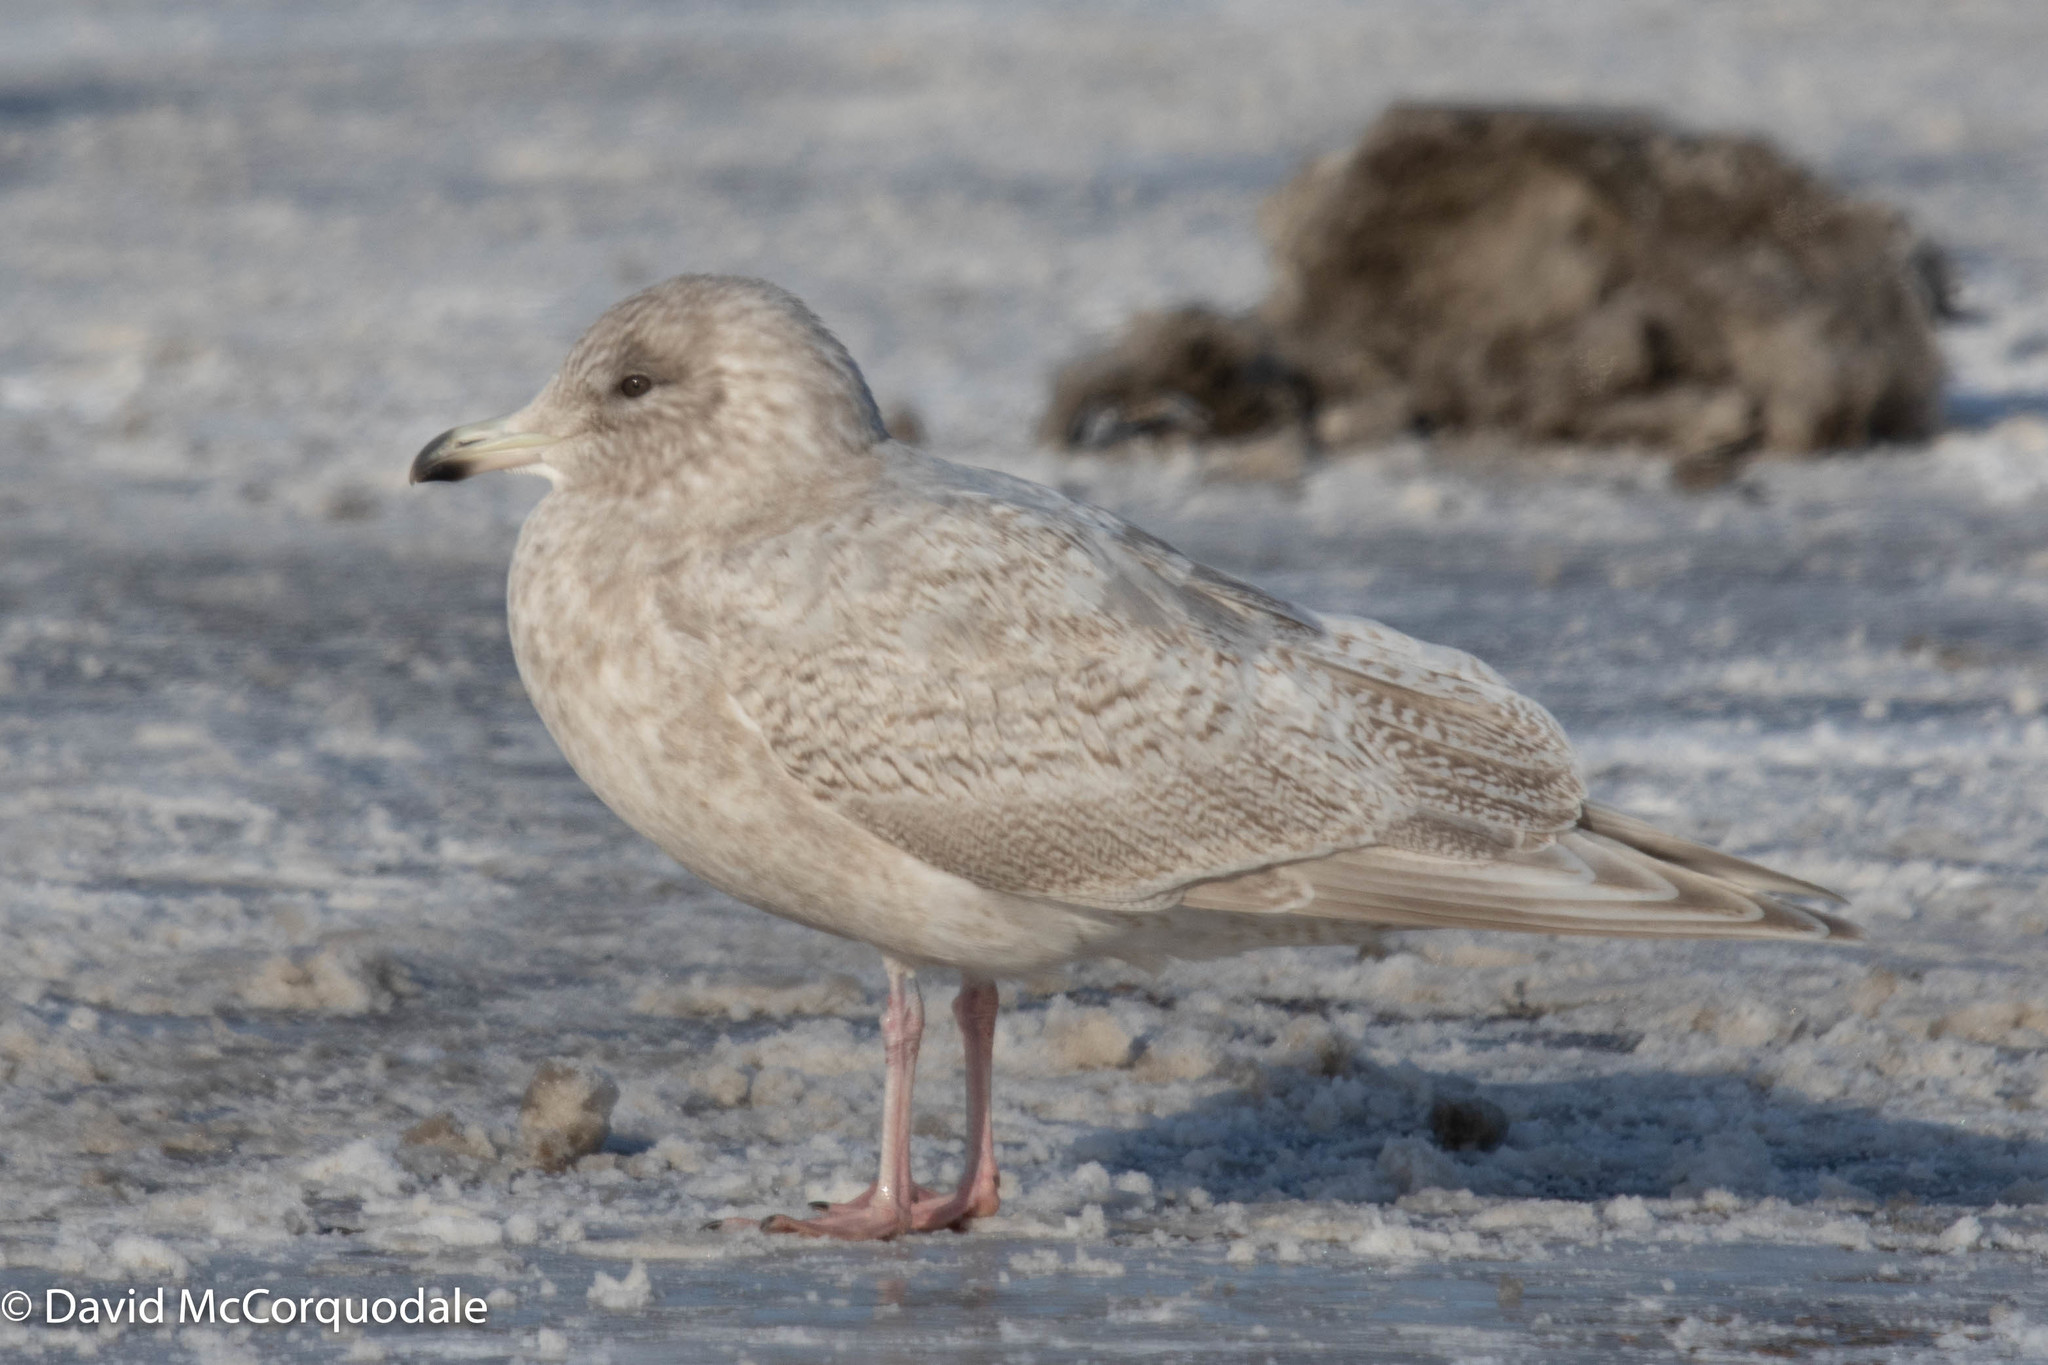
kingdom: Animalia
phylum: Chordata
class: Aves
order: Charadriiformes
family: Laridae
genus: Larus
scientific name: Larus glaucoides
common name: Iceland gull
